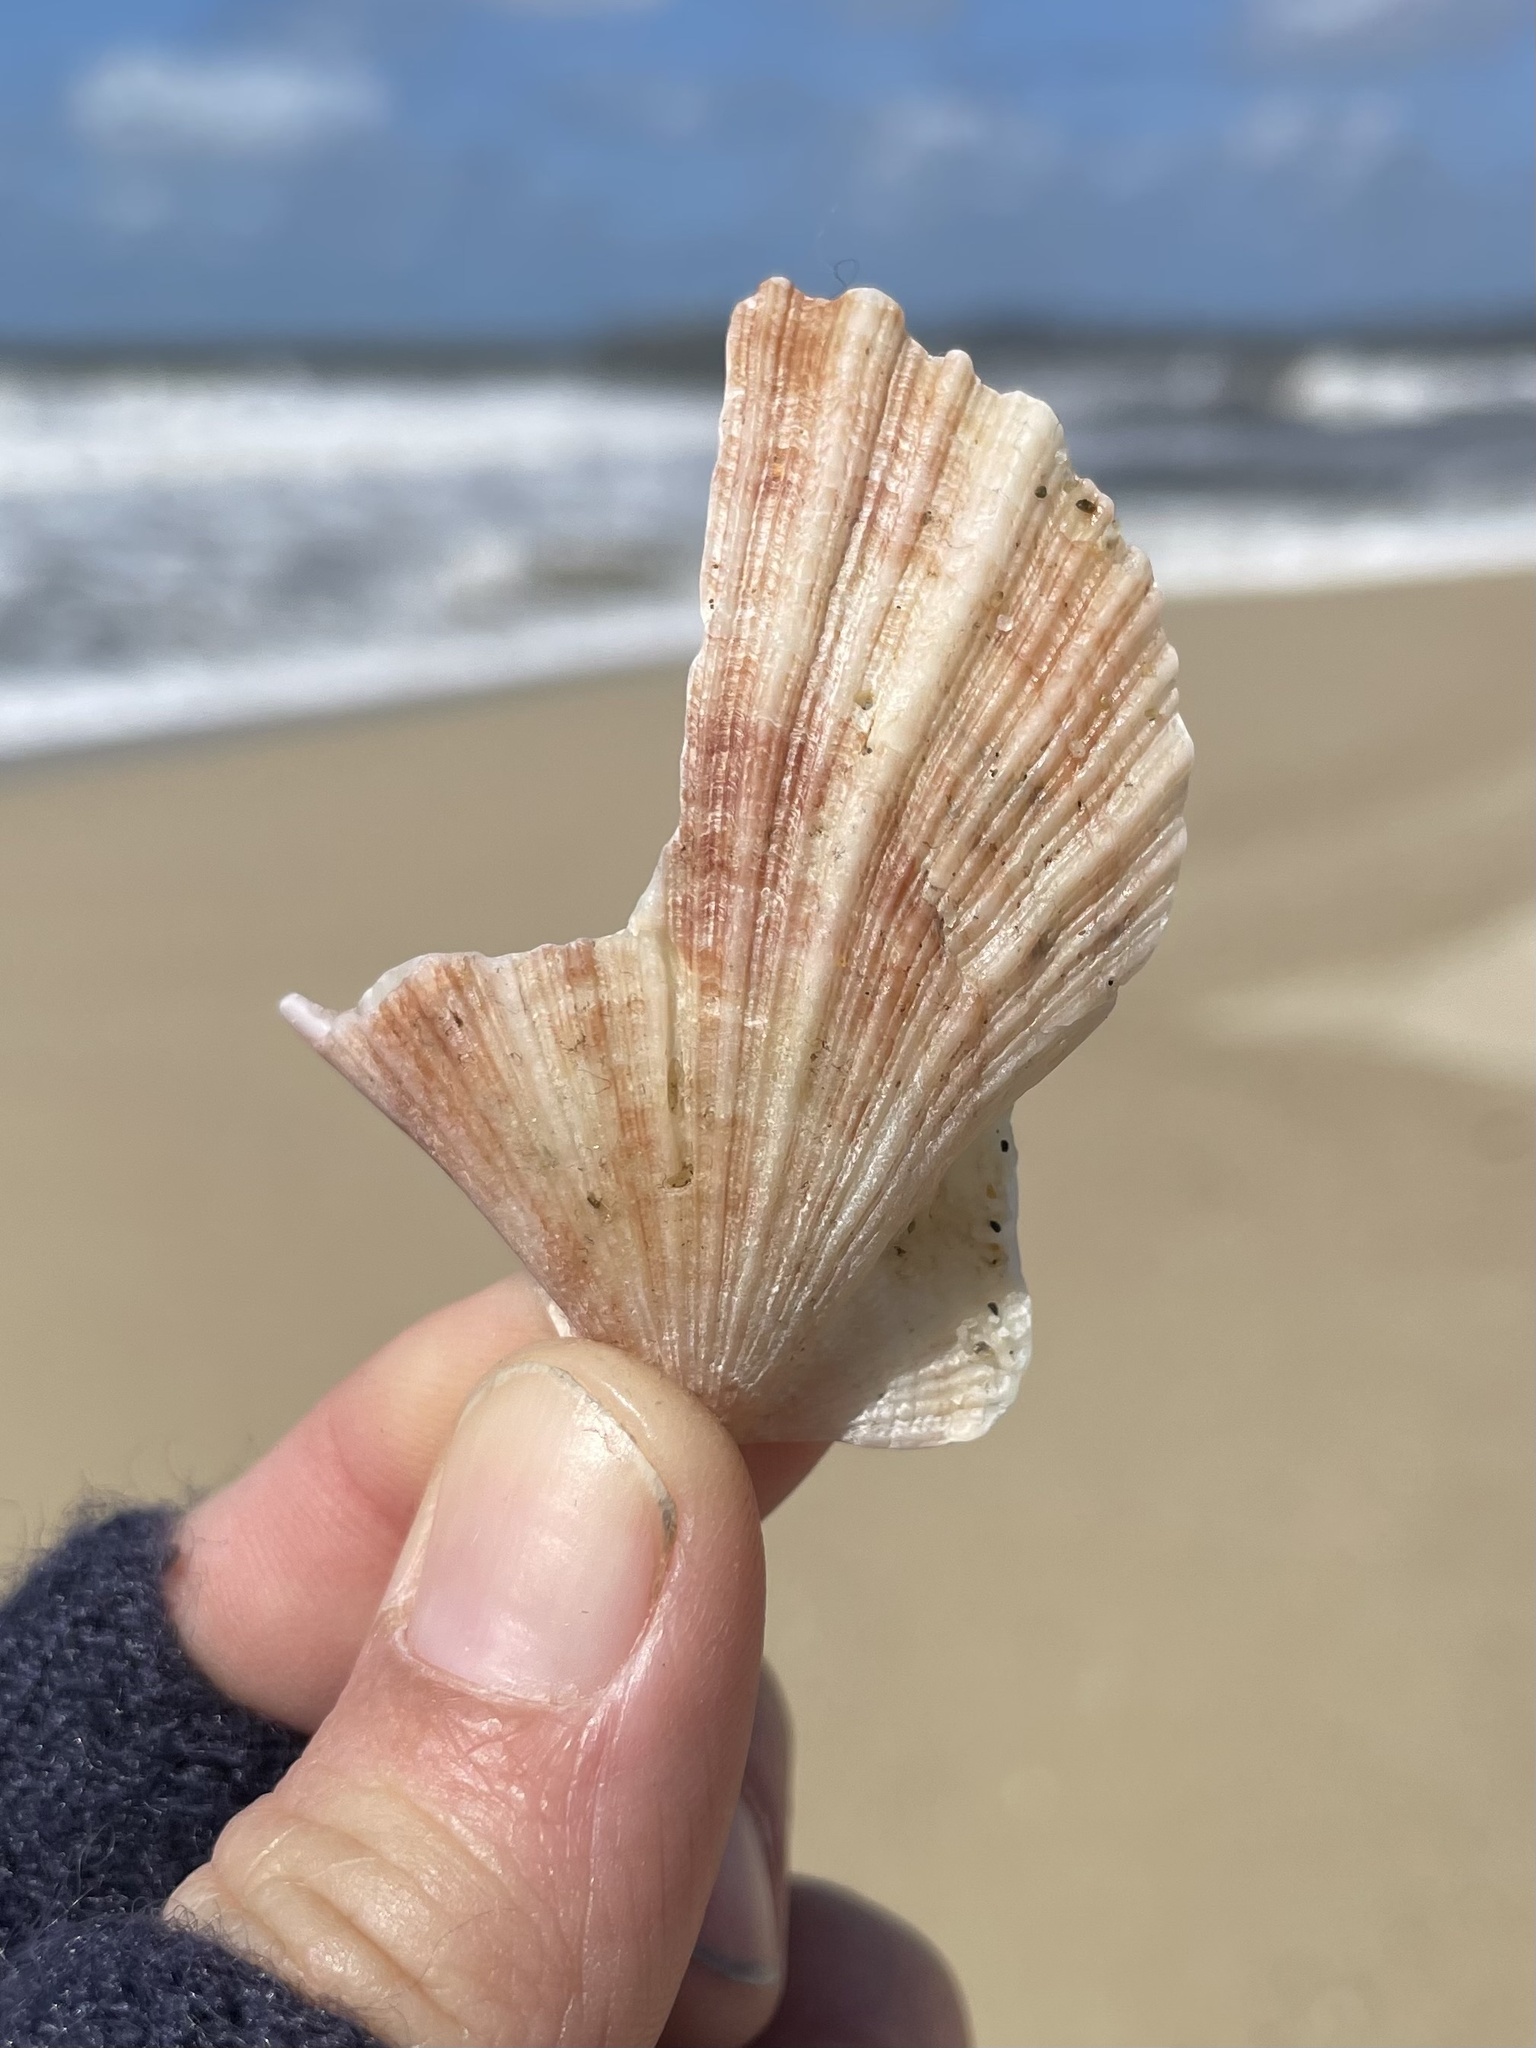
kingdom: Animalia
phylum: Mollusca
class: Bivalvia
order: Pectinida
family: Pectinidae
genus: Chlamys
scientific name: Chlamys hastata
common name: Spear scallop
